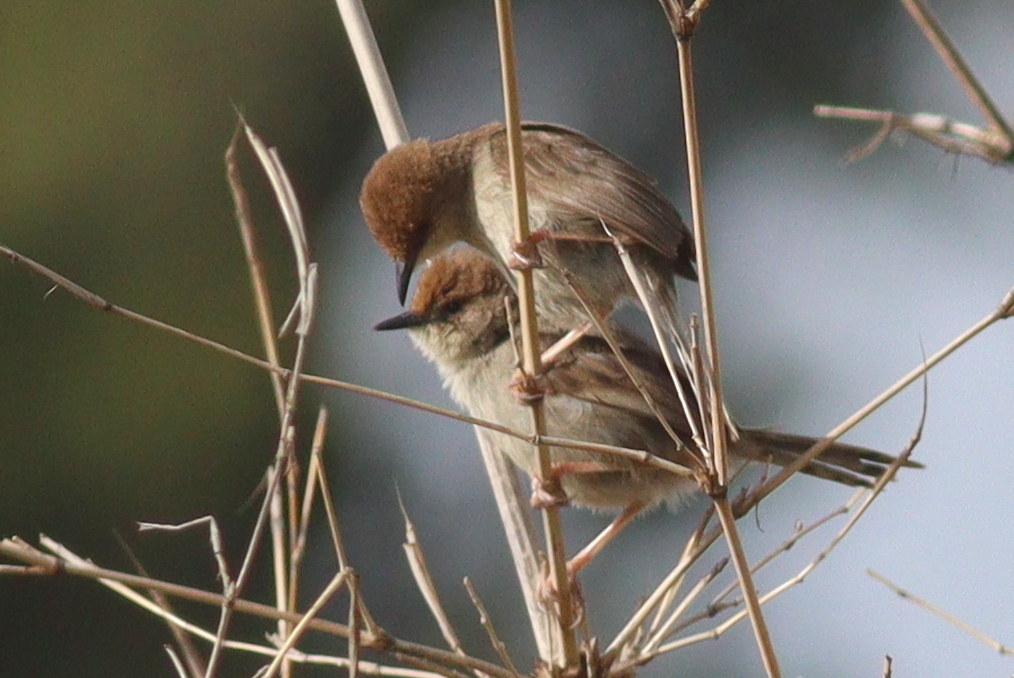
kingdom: Animalia
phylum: Chordata
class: Aves
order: Passeriformes
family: Cisticolidae
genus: Cisticola
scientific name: Cisticola hunteri
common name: Hunter's cisticola
